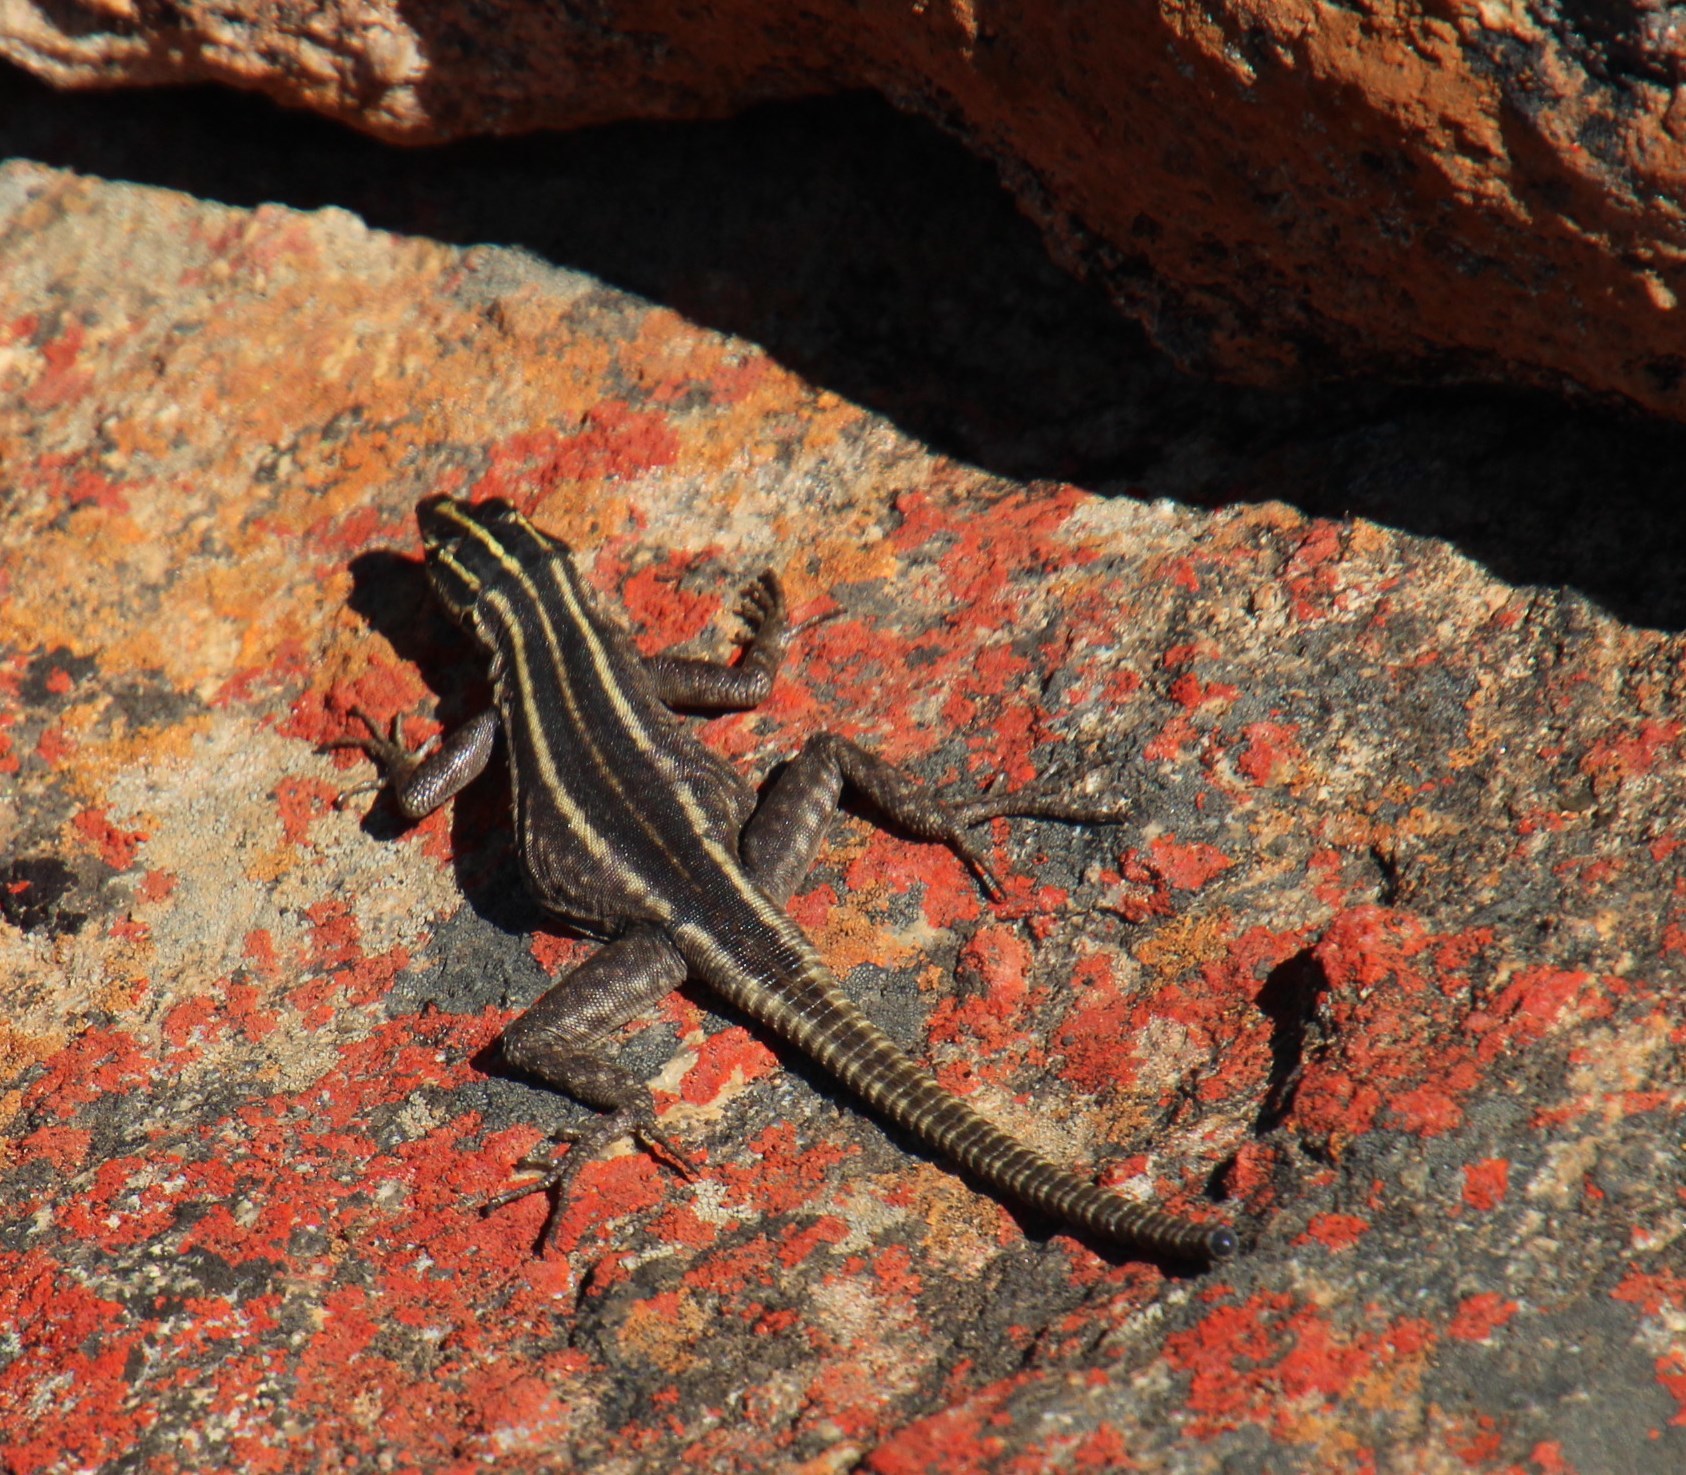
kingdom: Animalia
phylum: Chordata
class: Squamata
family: Cordylidae
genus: Platysaurus
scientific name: Platysaurus capensis
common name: Namaqua flat lizard
